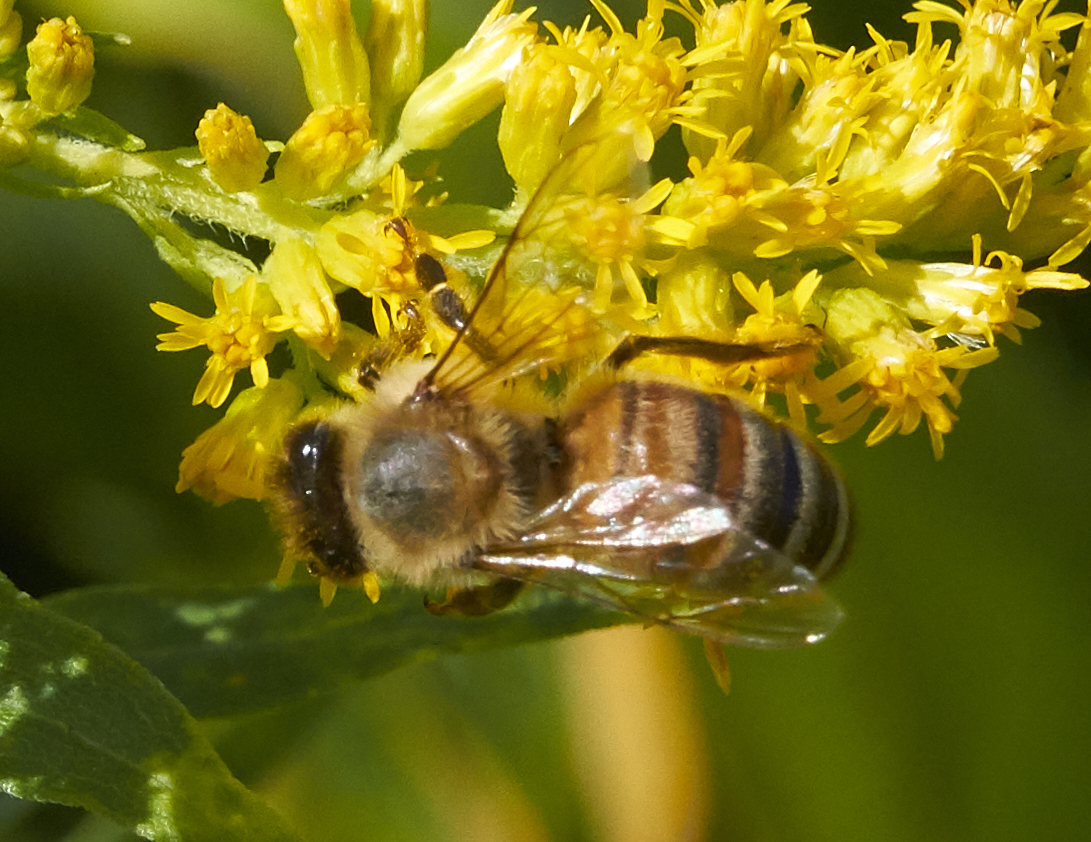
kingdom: Animalia
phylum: Arthropoda
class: Insecta
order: Hymenoptera
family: Apidae
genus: Apis
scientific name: Apis mellifera
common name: Honey bee
